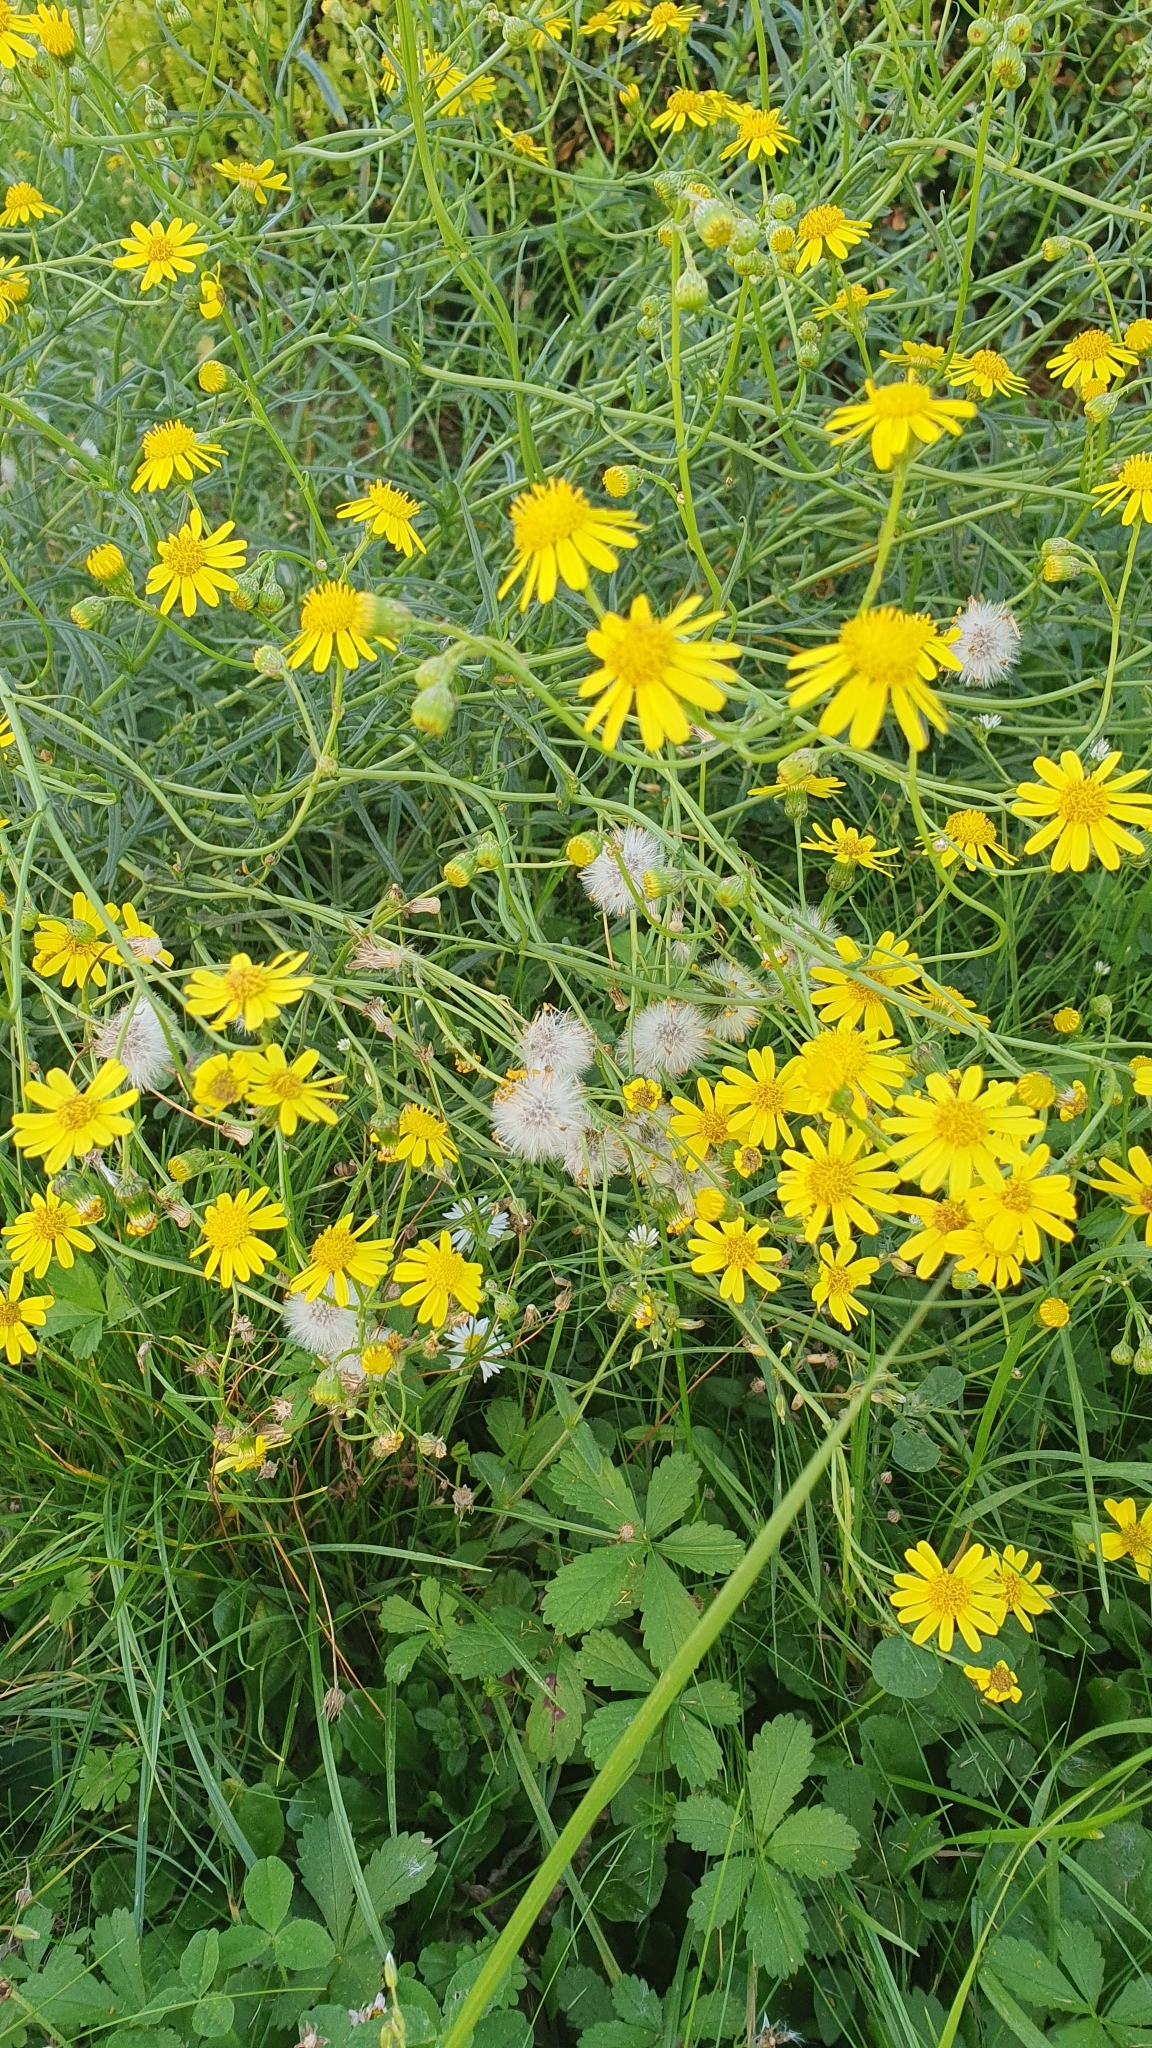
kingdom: Plantae
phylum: Tracheophyta
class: Magnoliopsida
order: Asterales
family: Asteraceae
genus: Senecio
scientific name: Senecio inaequidens
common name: Narrow-leaved ragwort
